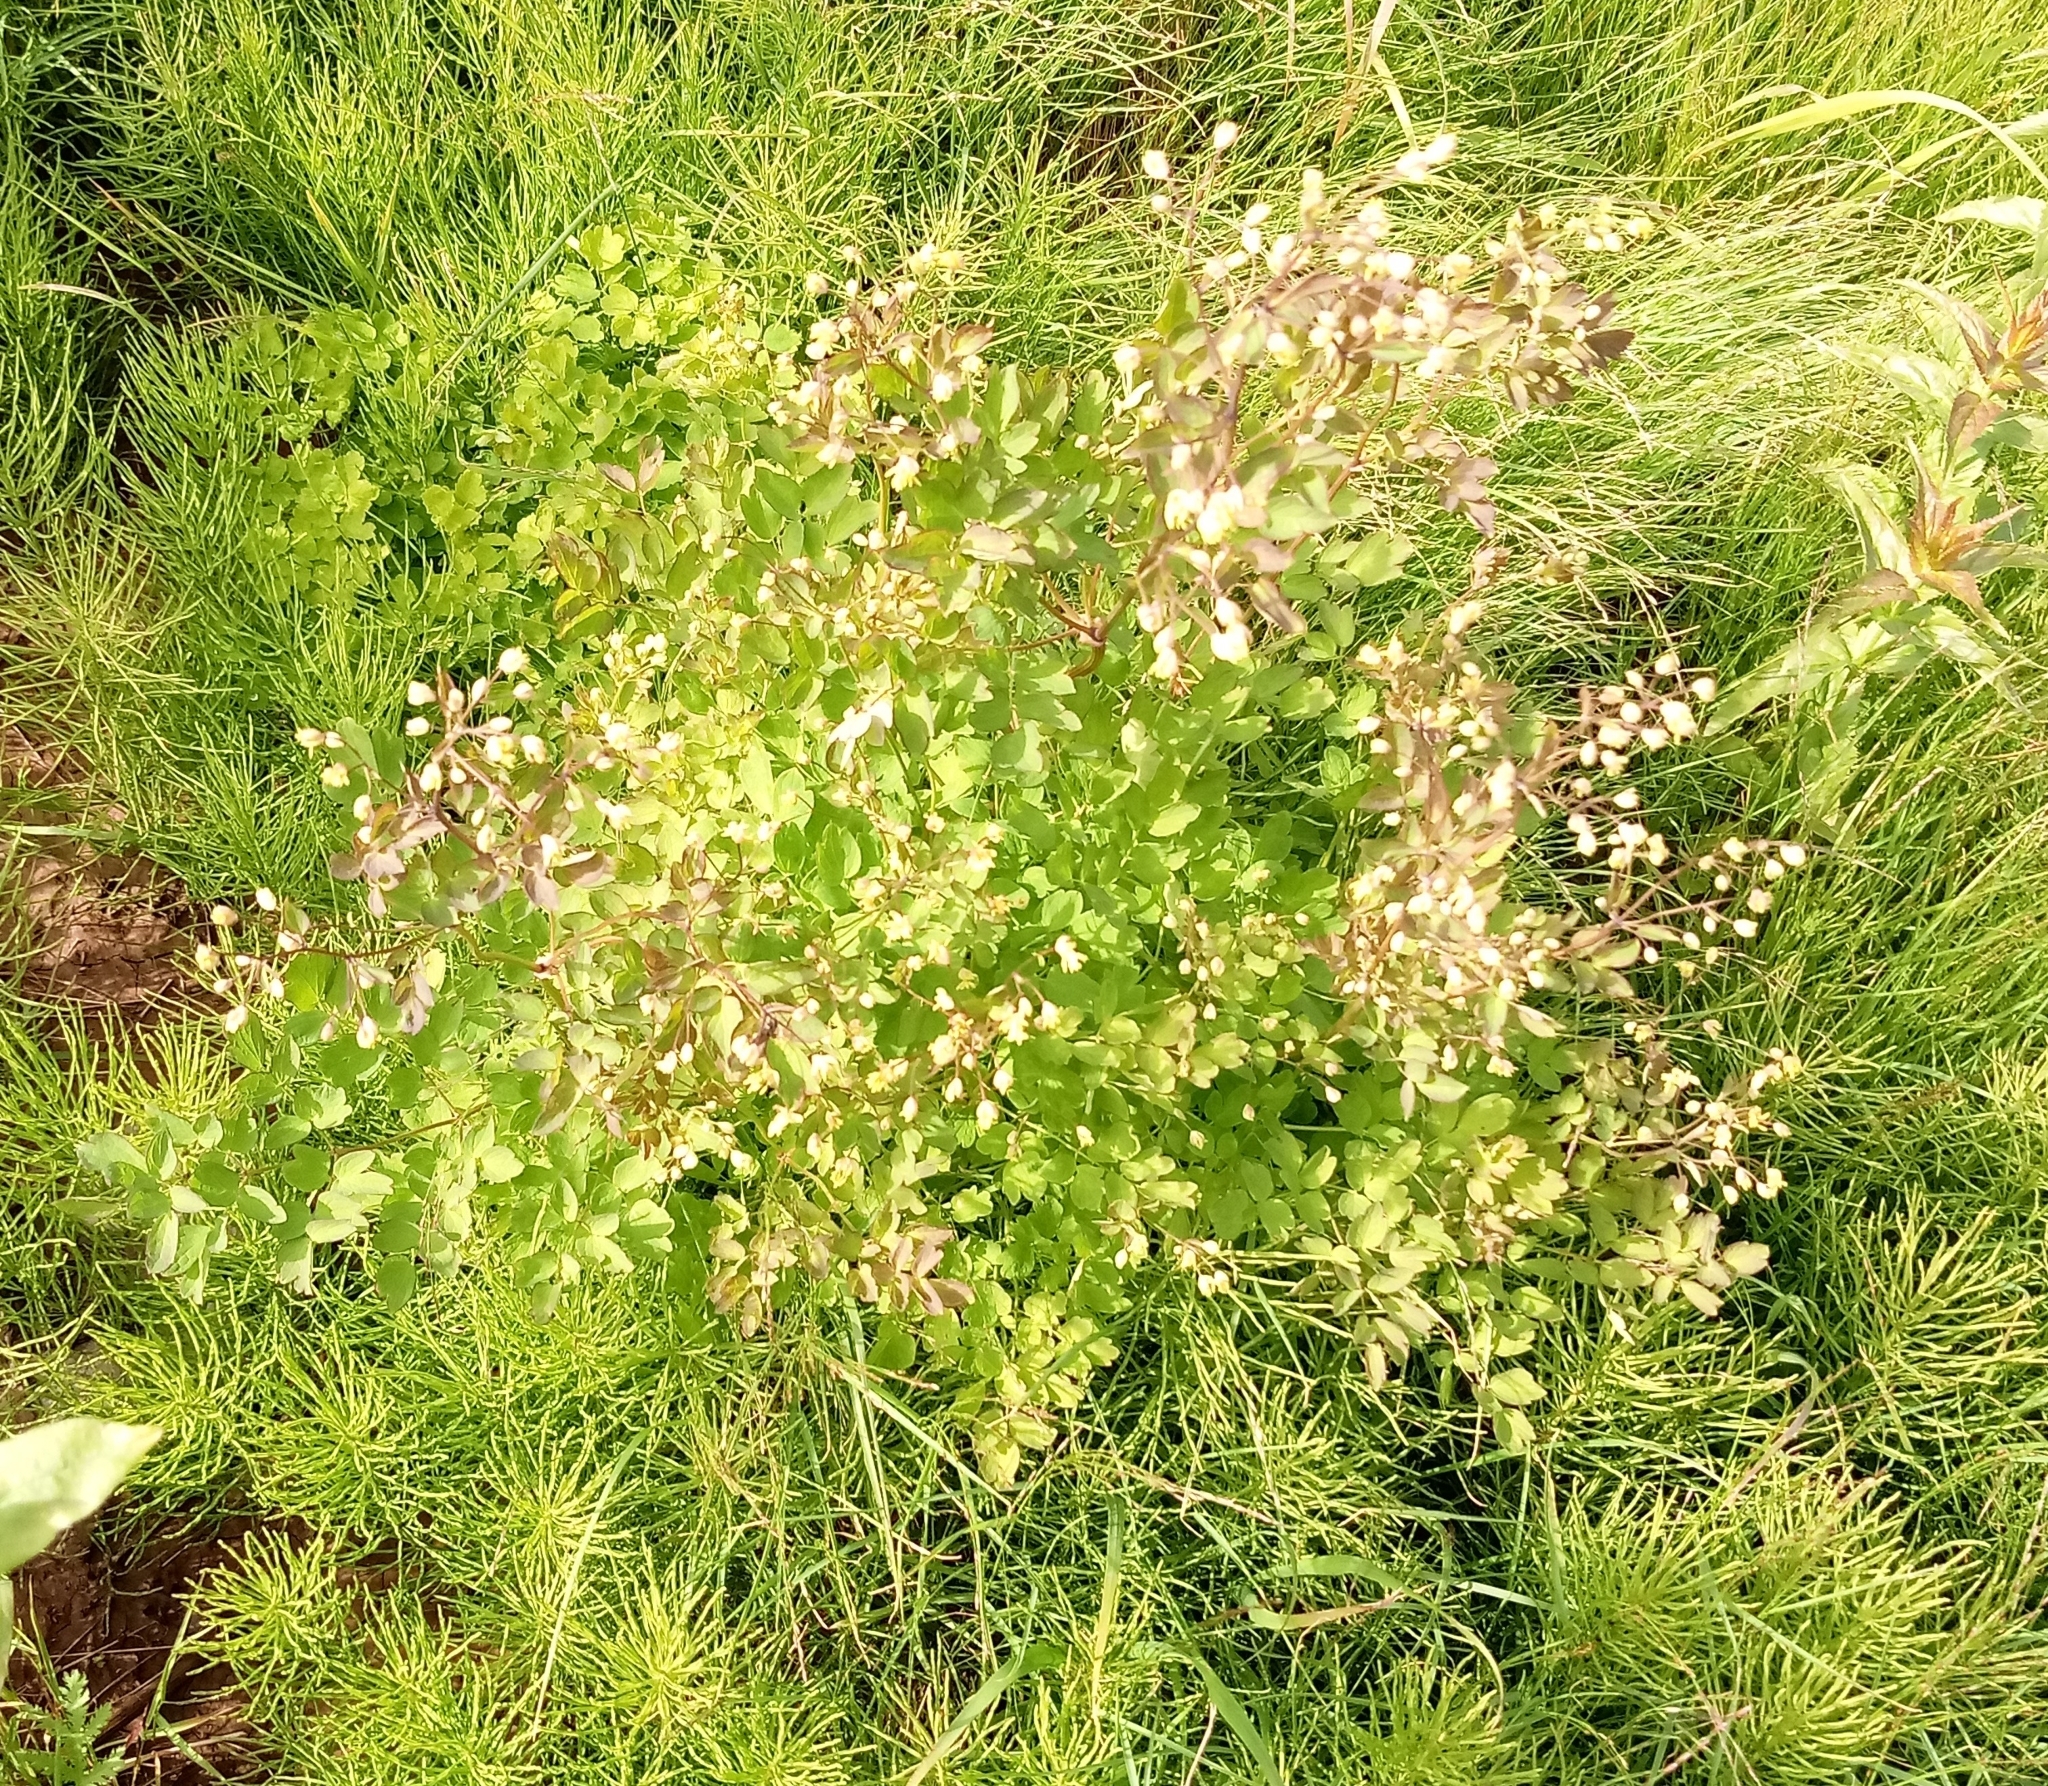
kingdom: Plantae
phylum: Tracheophyta
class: Magnoliopsida
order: Ranunculales
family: Ranunculaceae
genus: Thalictrum
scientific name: Thalictrum minus
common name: Lesser meadow-rue
